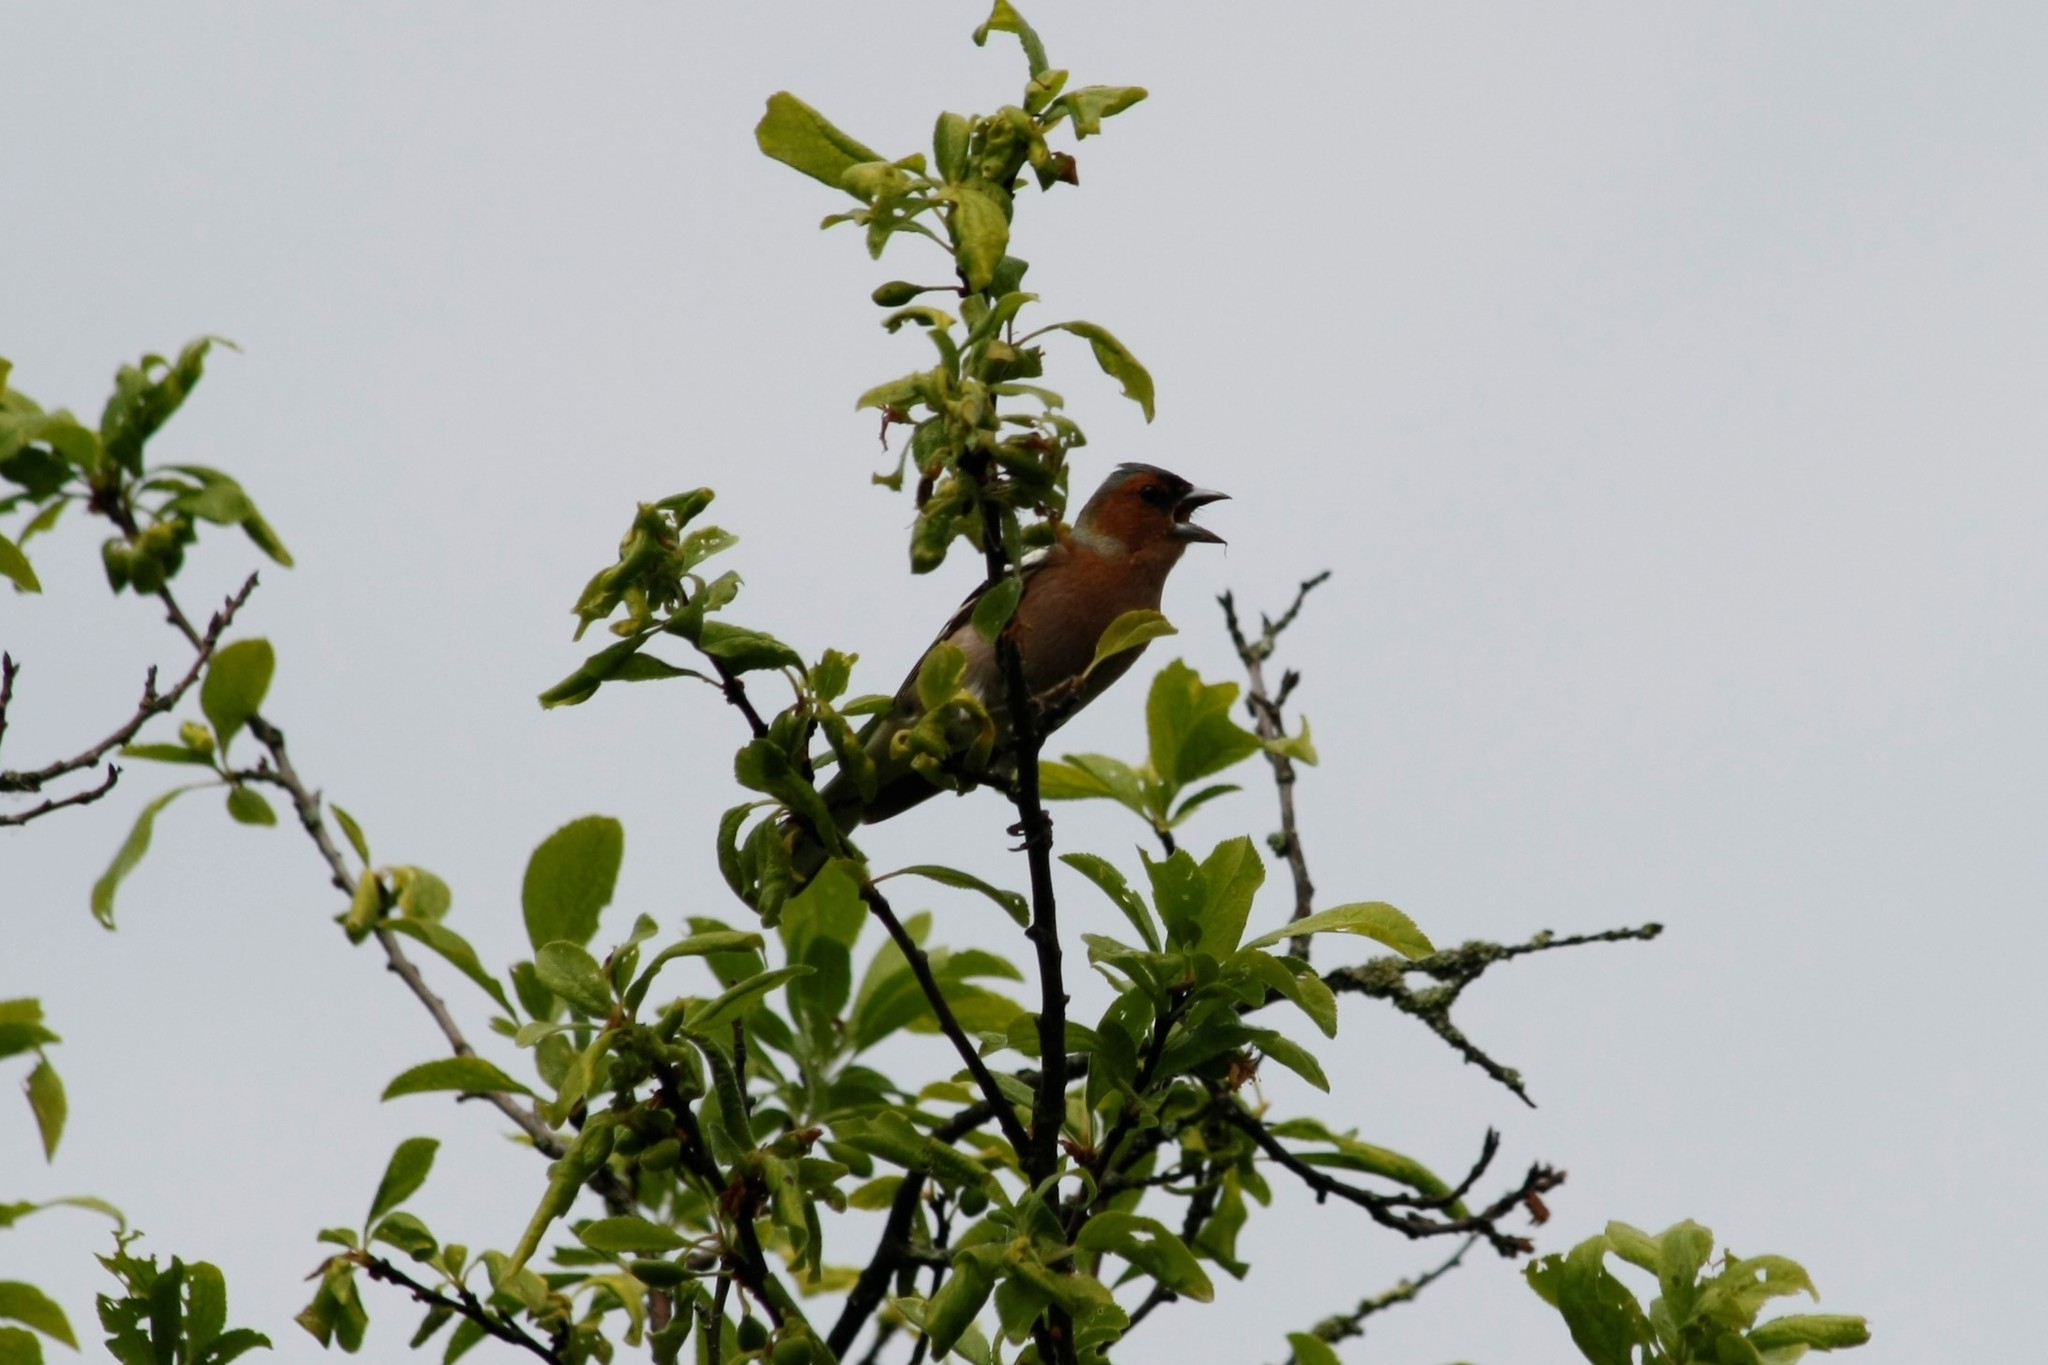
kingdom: Animalia
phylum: Chordata
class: Aves
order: Passeriformes
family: Fringillidae
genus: Fringilla
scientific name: Fringilla coelebs
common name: Common chaffinch
